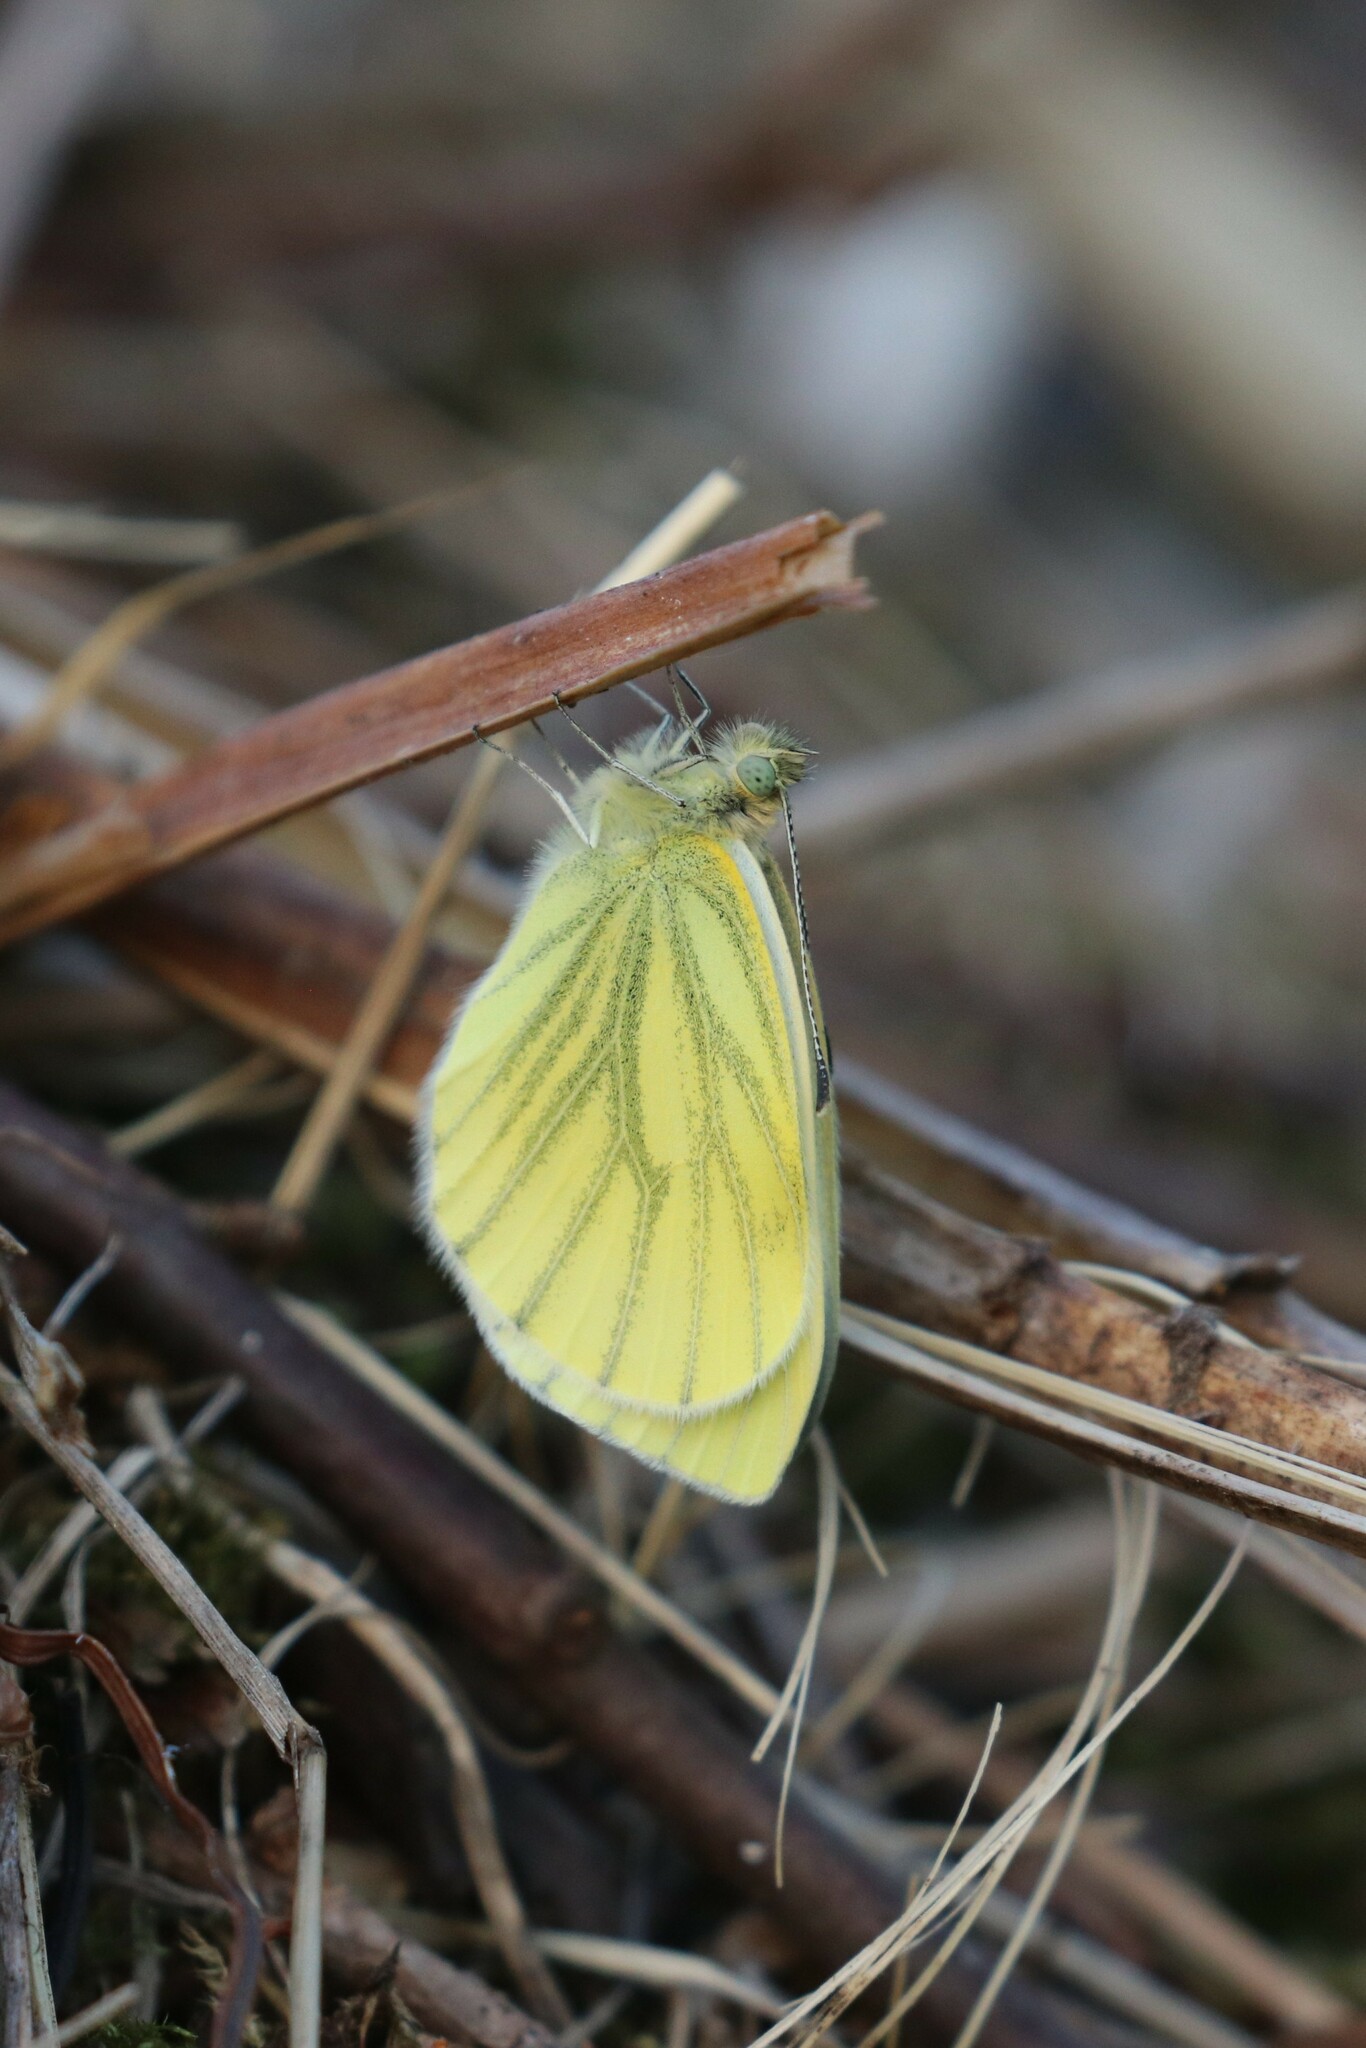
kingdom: Animalia
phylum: Arthropoda
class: Insecta
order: Lepidoptera
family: Pieridae
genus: Pieris
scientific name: Pieris napi
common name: Green-veined white
